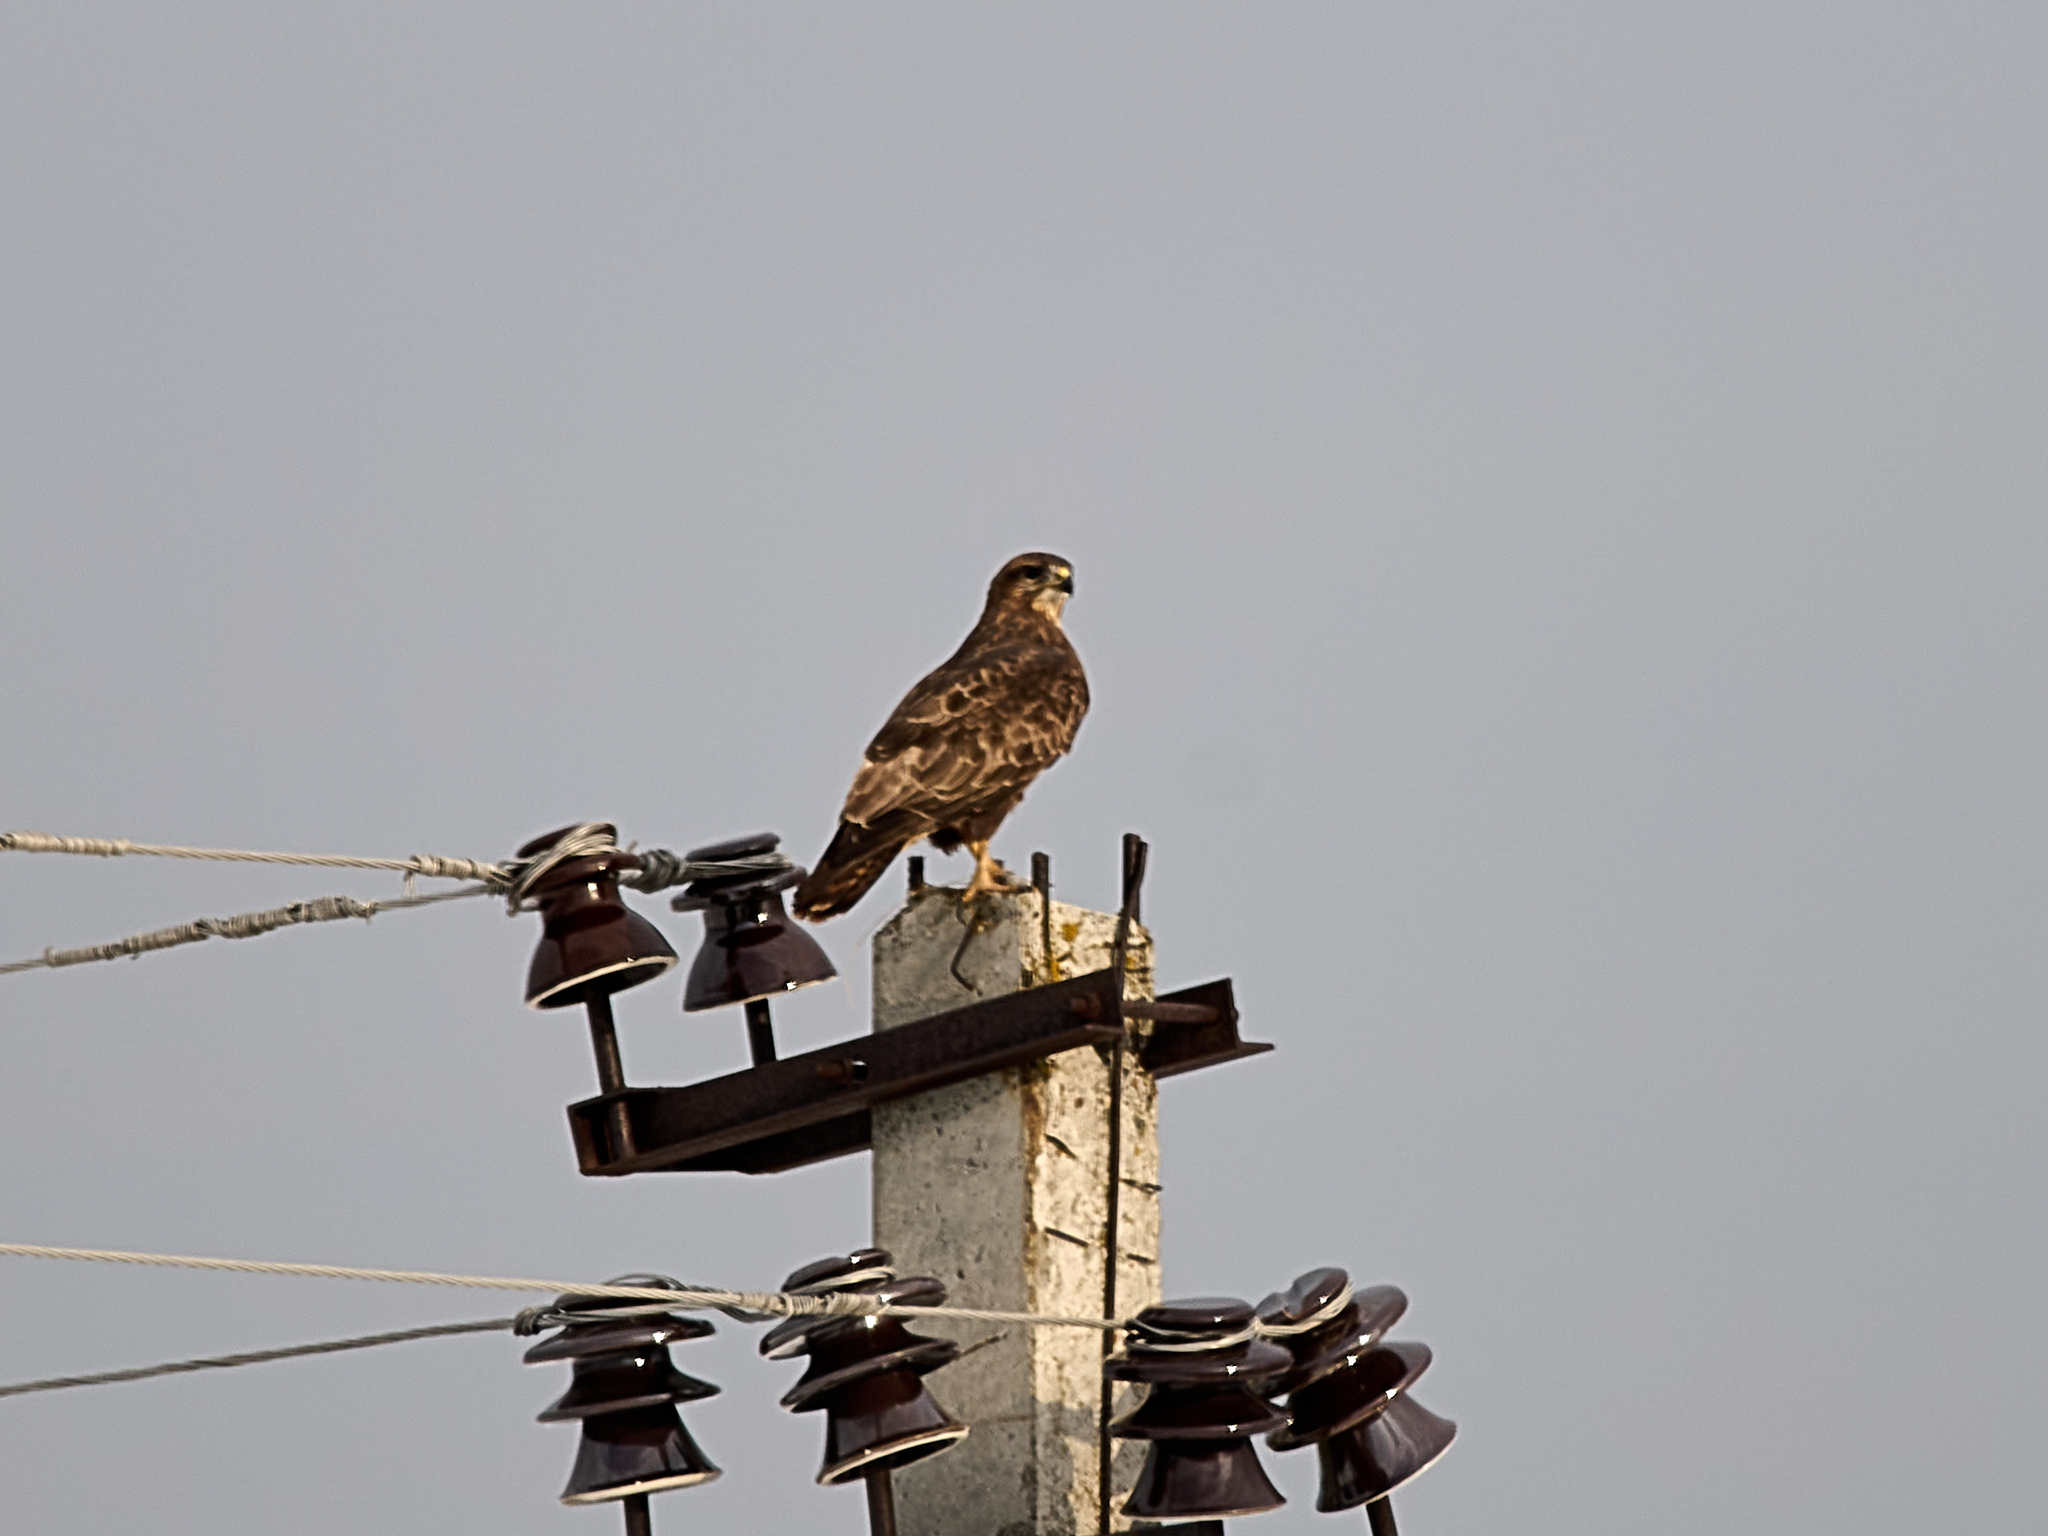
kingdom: Animalia
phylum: Chordata
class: Aves
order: Accipitriformes
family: Accipitridae
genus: Buteo
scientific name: Buteo buteo
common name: Common buzzard
